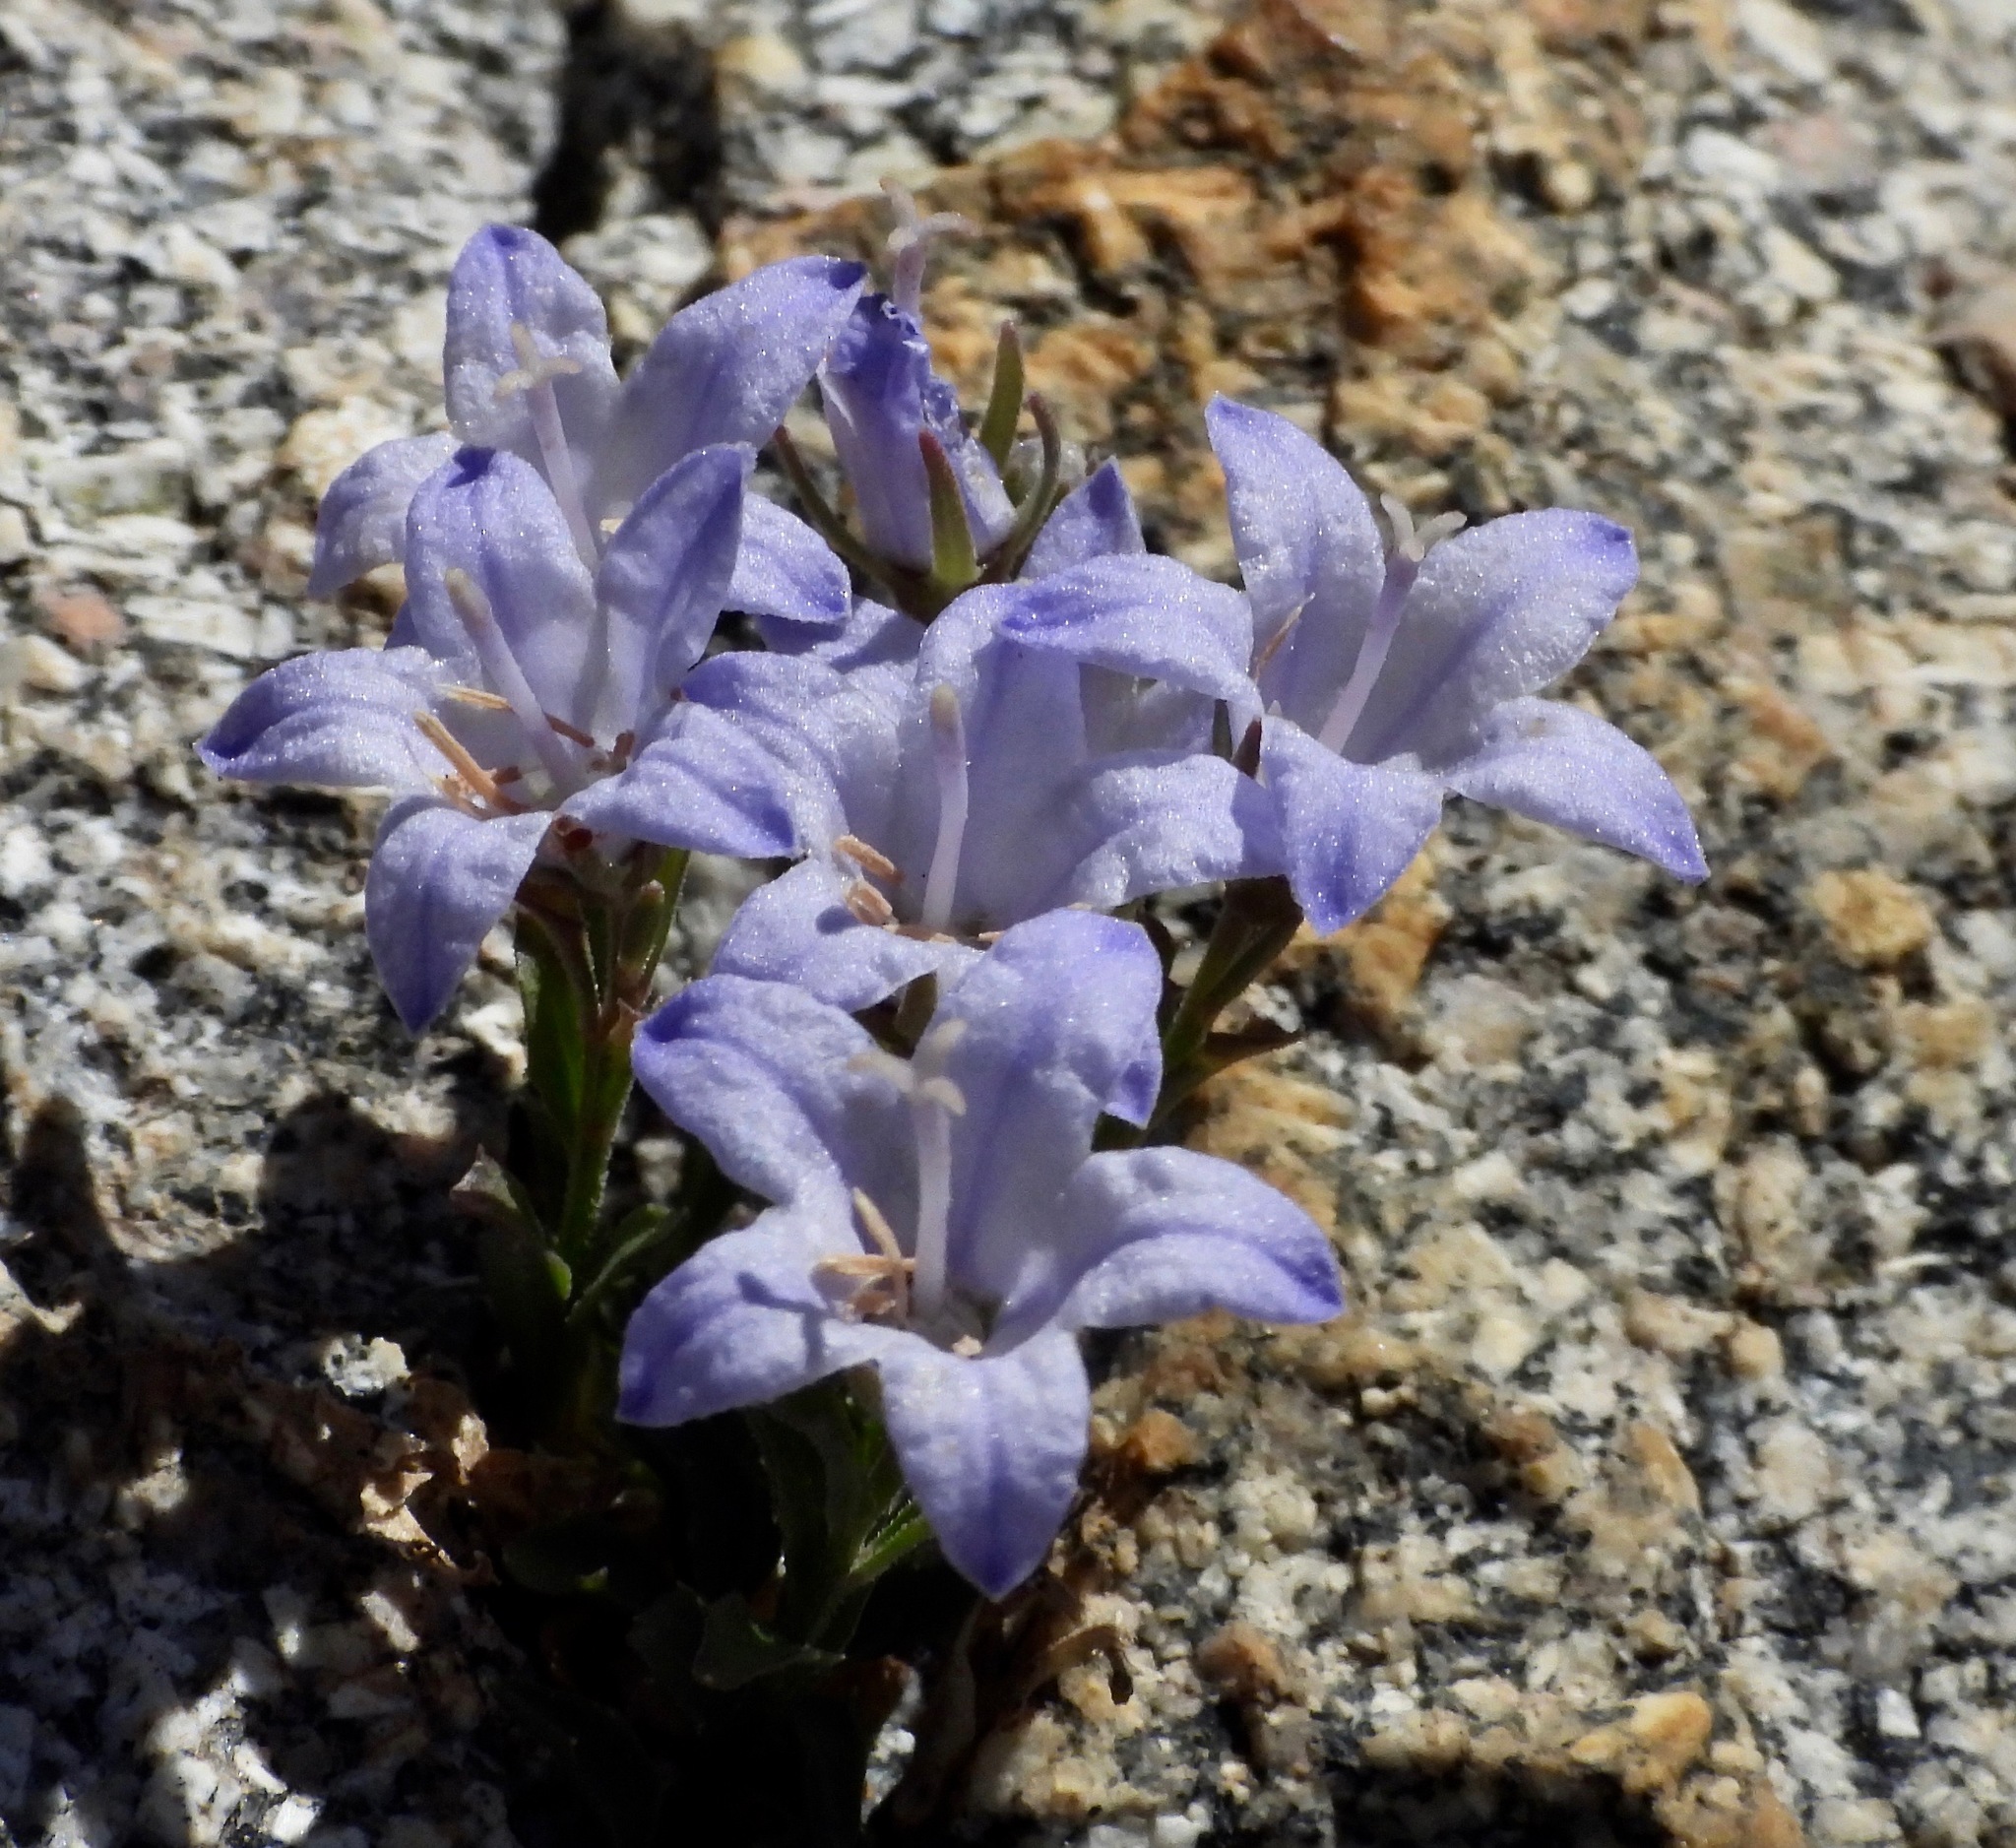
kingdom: Plantae
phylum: Tracheophyta
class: Magnoliopsida
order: Asterales
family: Campanulaceae
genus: Campanula
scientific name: Campanula shetleri
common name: Castle crag harebell
